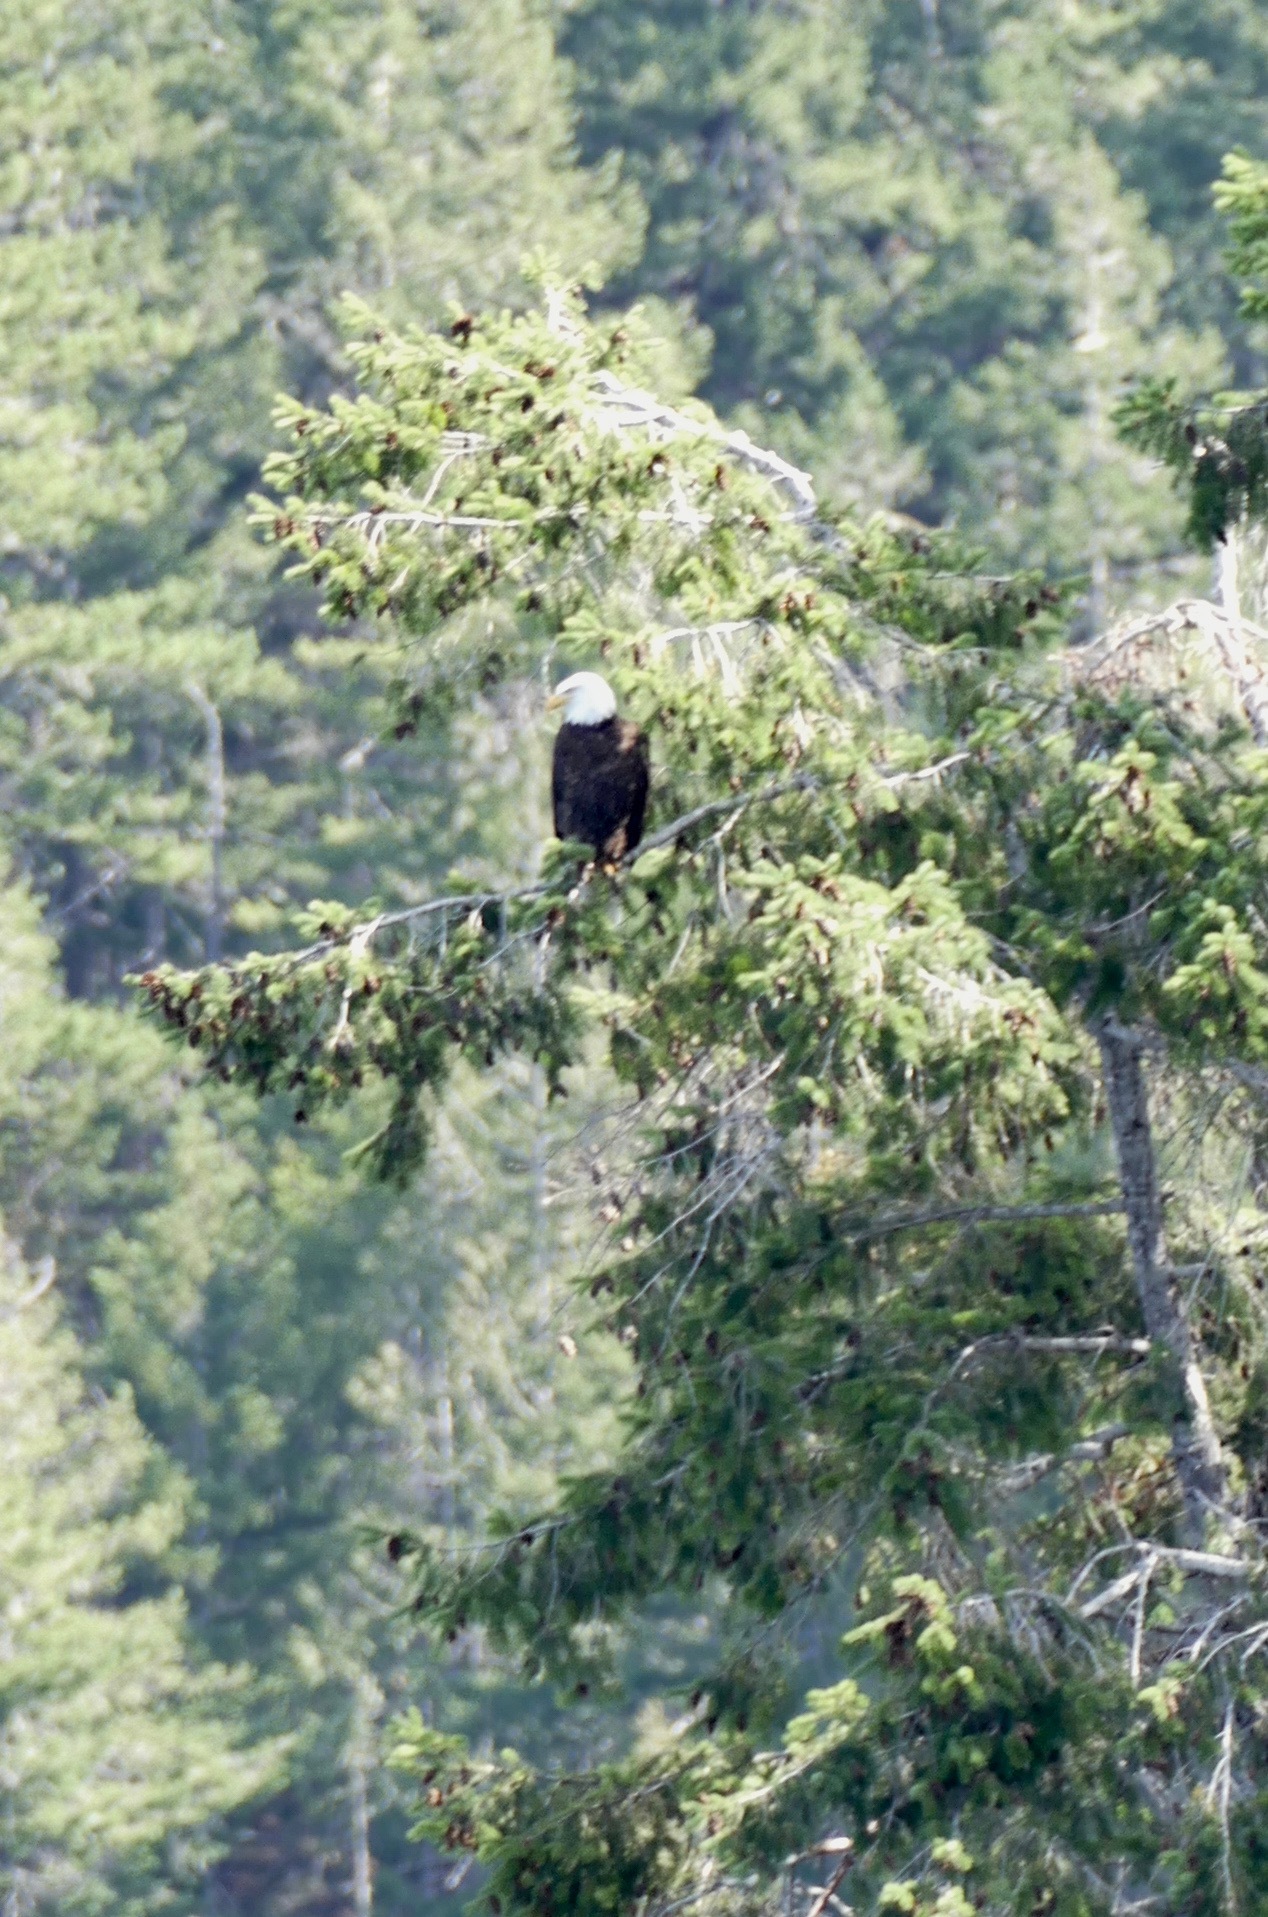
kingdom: Animalia
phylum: Chordata
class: Aves
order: Accipitriformes
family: Accipitridae
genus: Haliaeetus
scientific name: Haliaeetus leucocephalus
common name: Bald eagle
